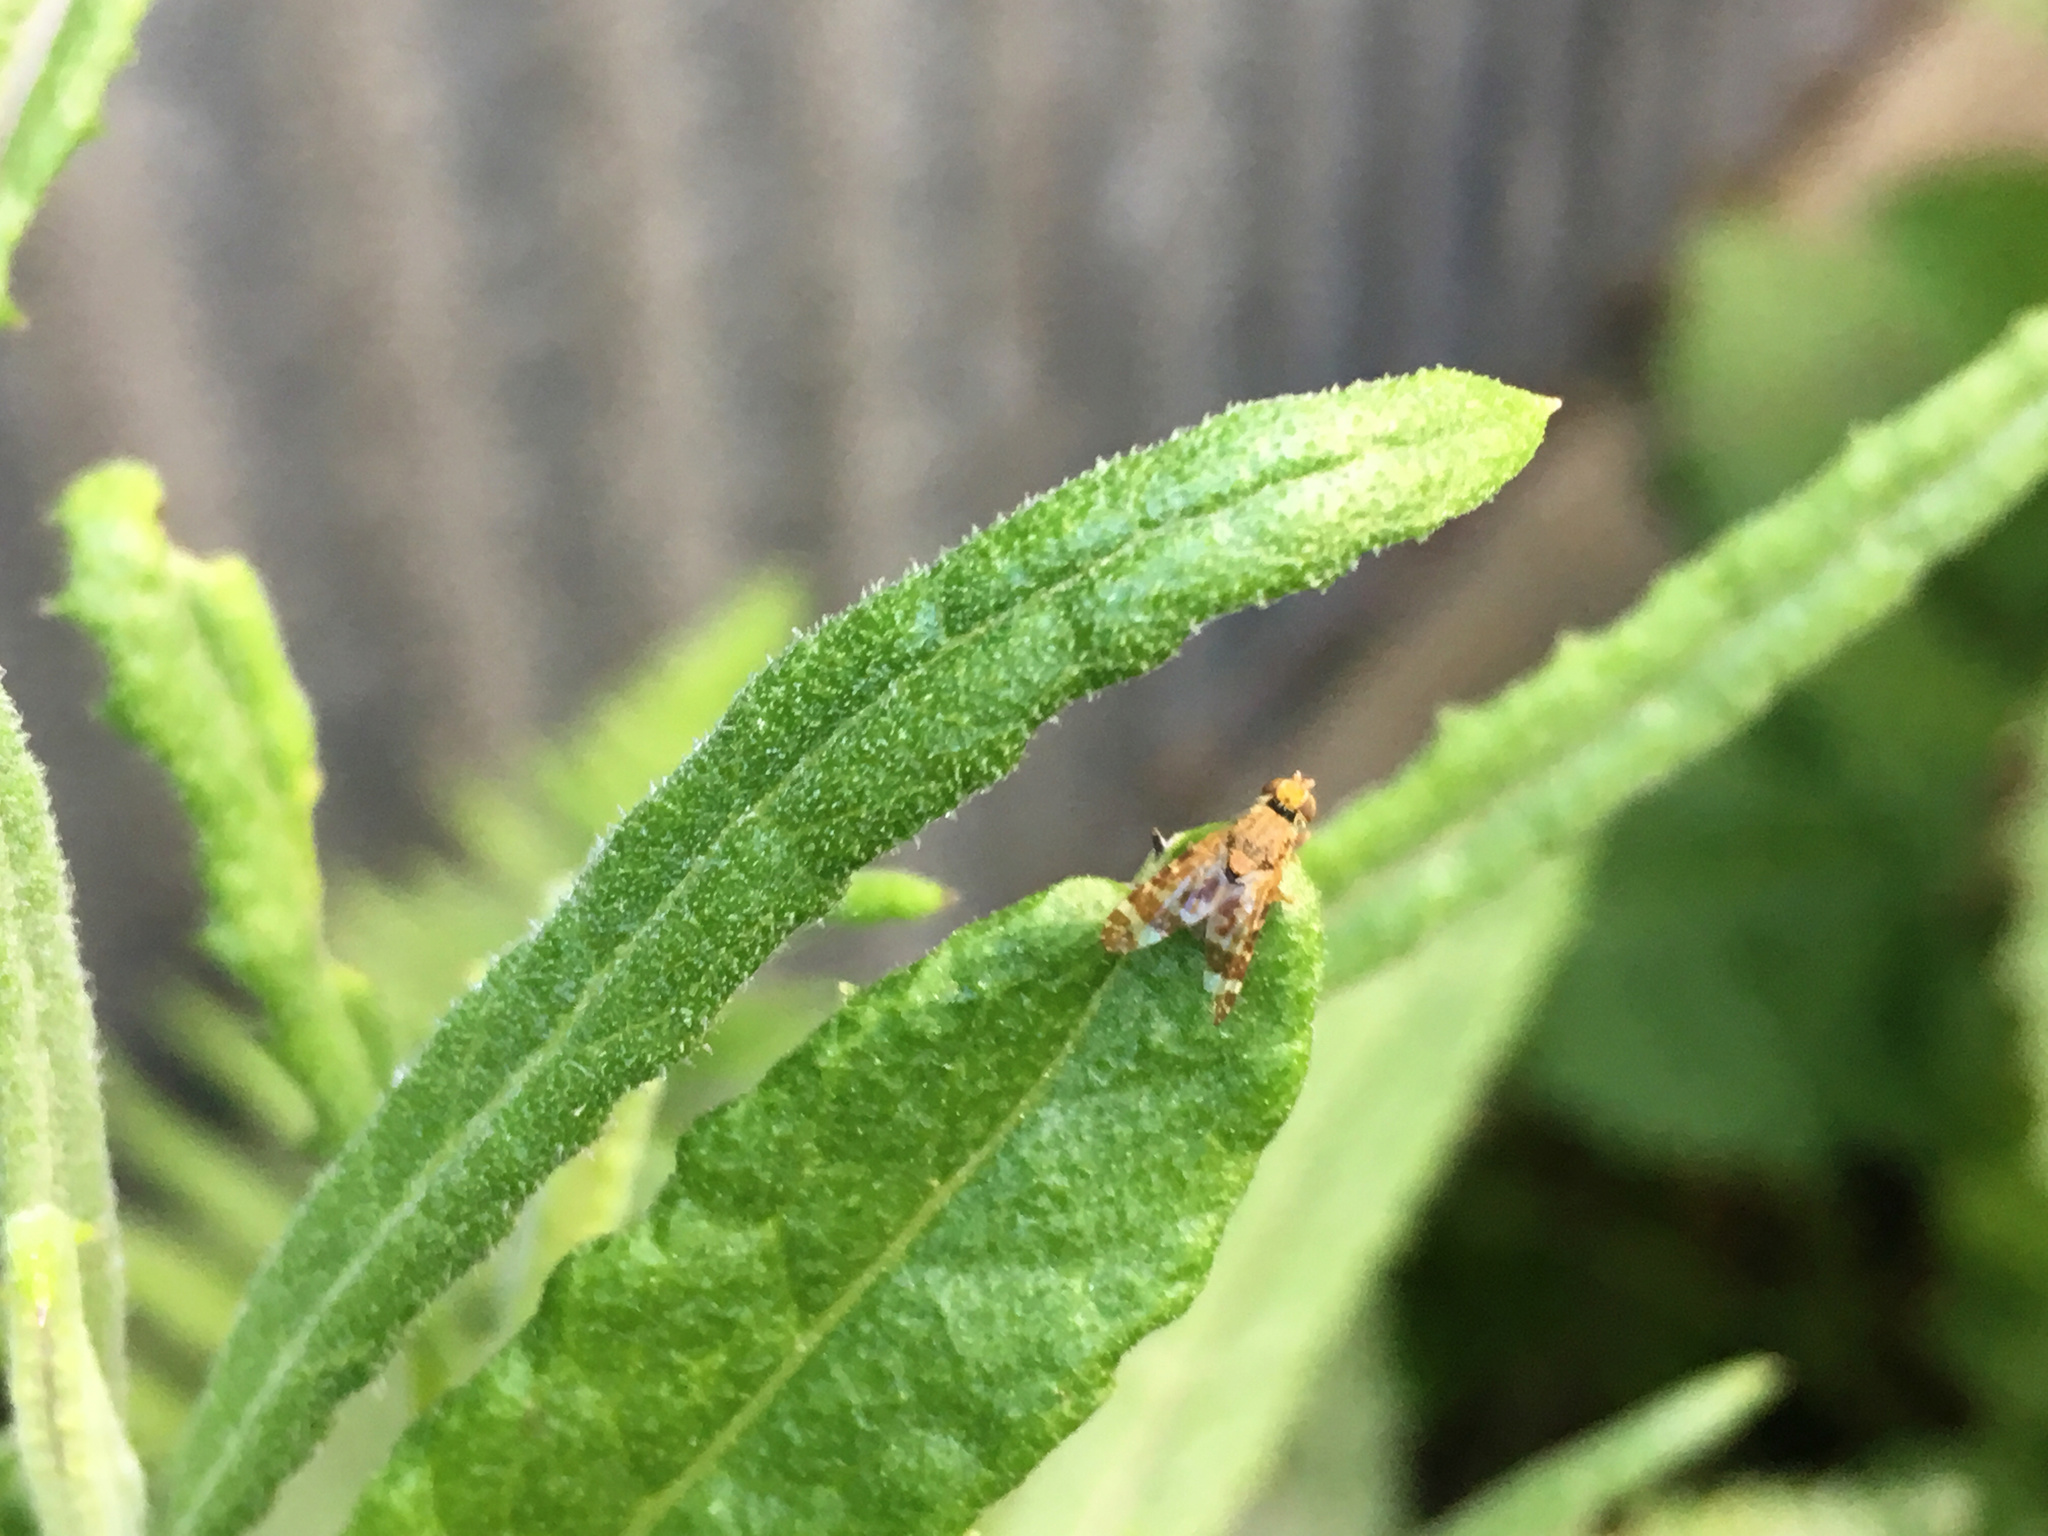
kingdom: Animalia
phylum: Arthropoda
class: Insecta
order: Diptera
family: Tephritidae
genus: Sphenella
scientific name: Sphenella
